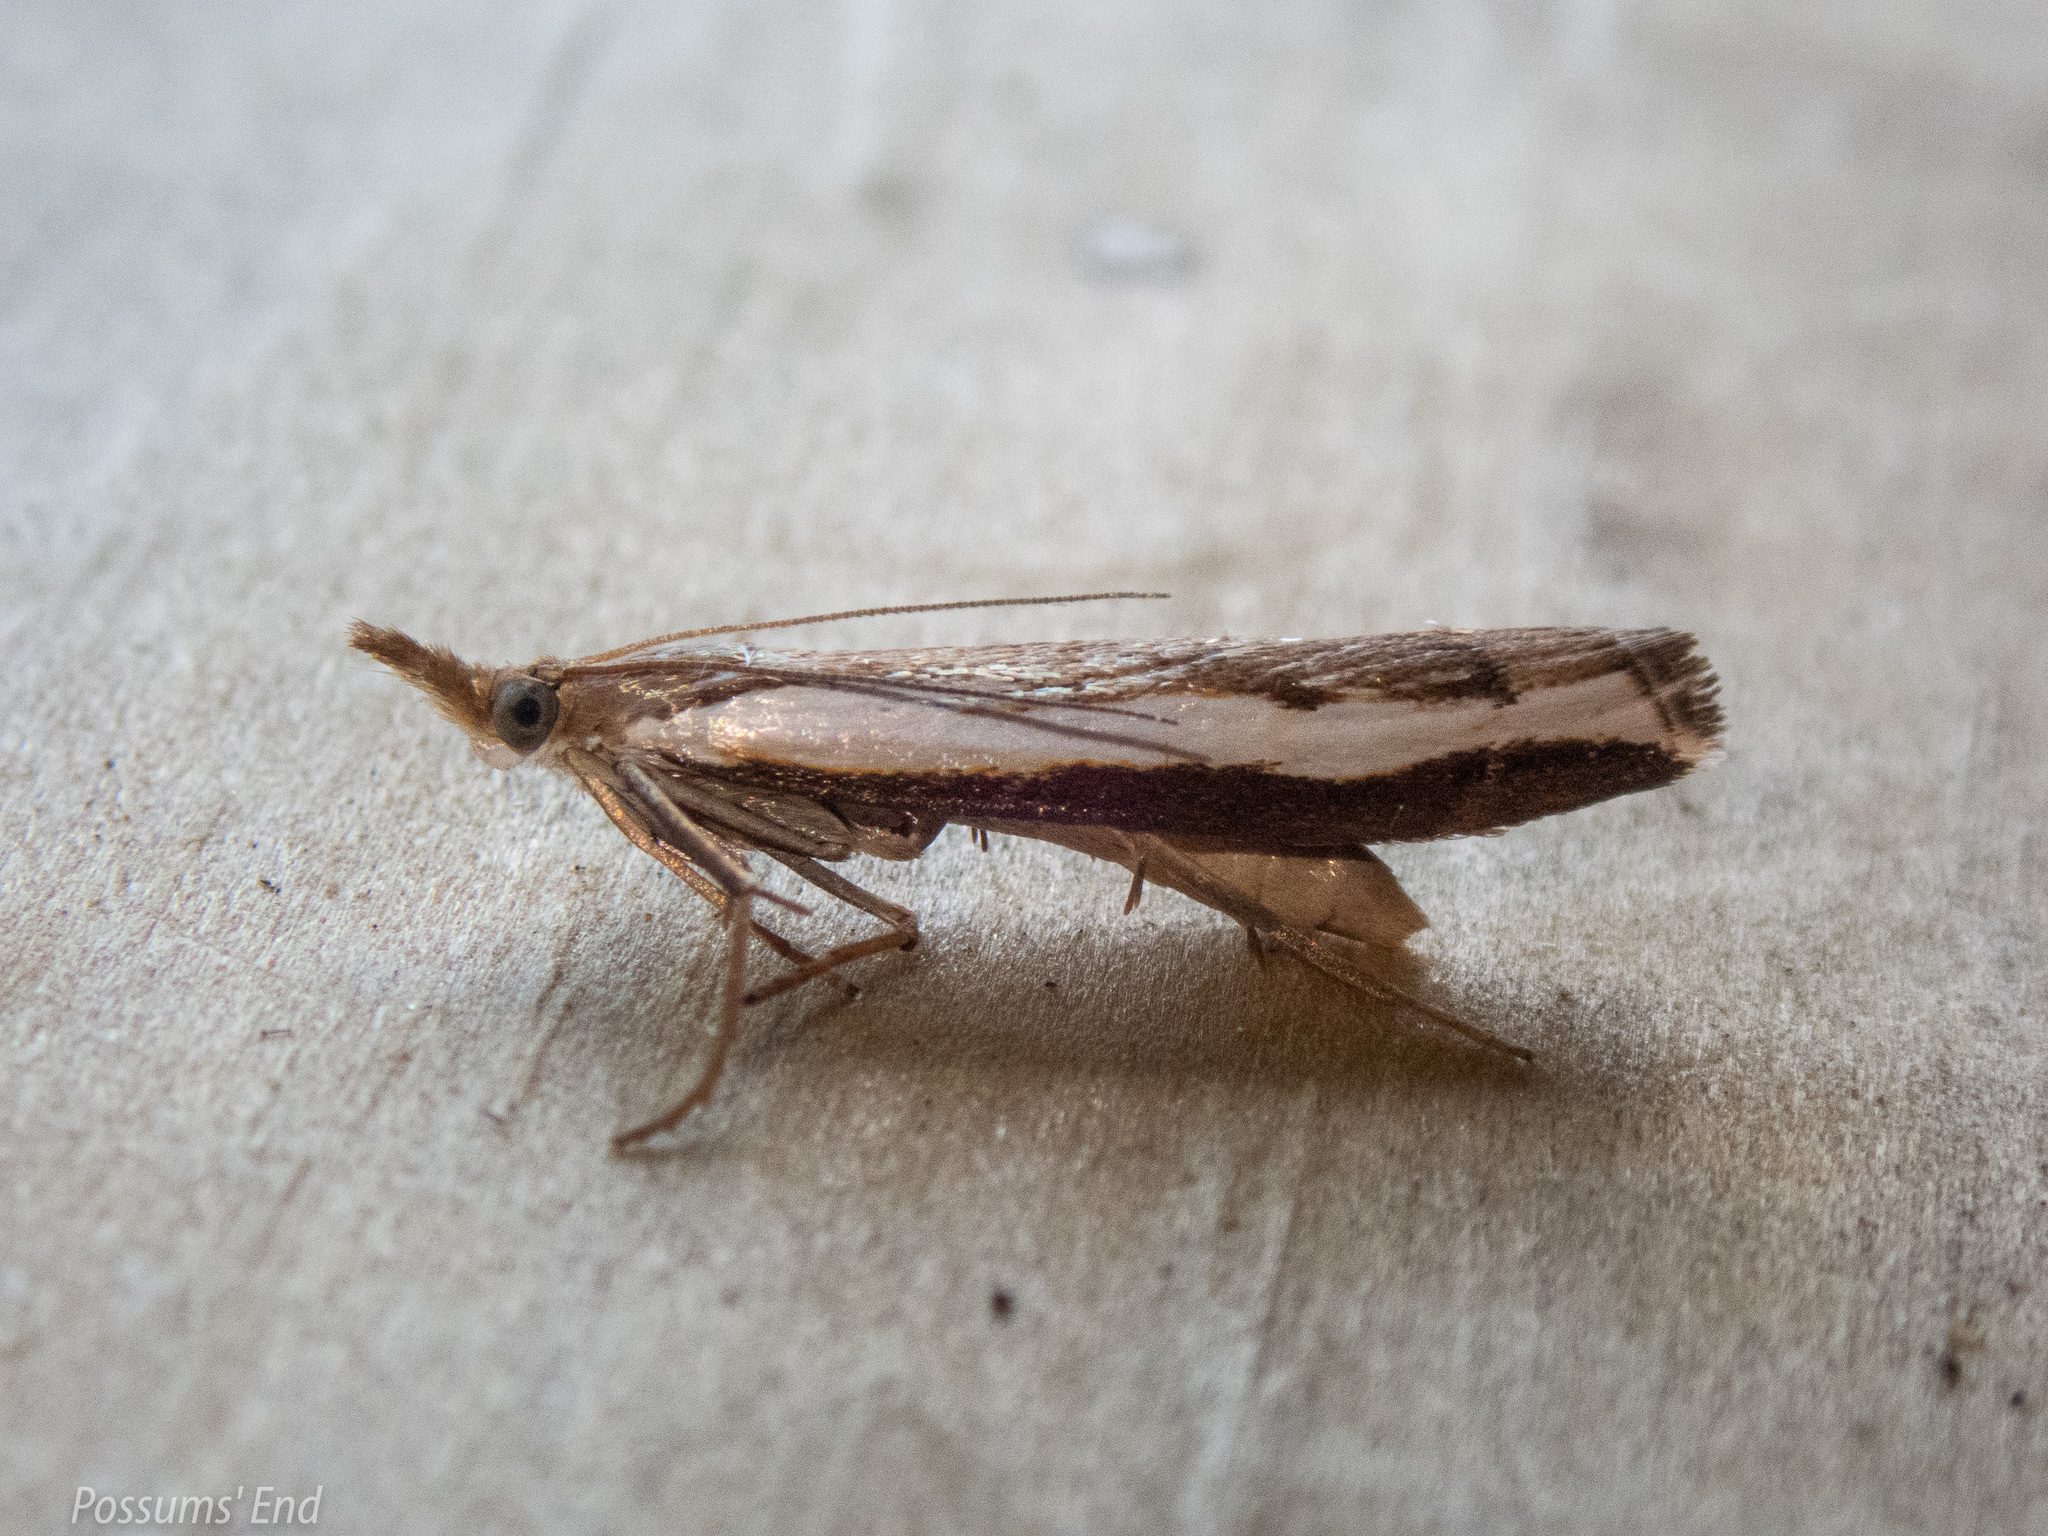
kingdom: Animalia
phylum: Arthropoda
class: Insecta
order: Lepidoptera
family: Crambidae
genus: Orocrambus
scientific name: Orocrambus flexuosellus
